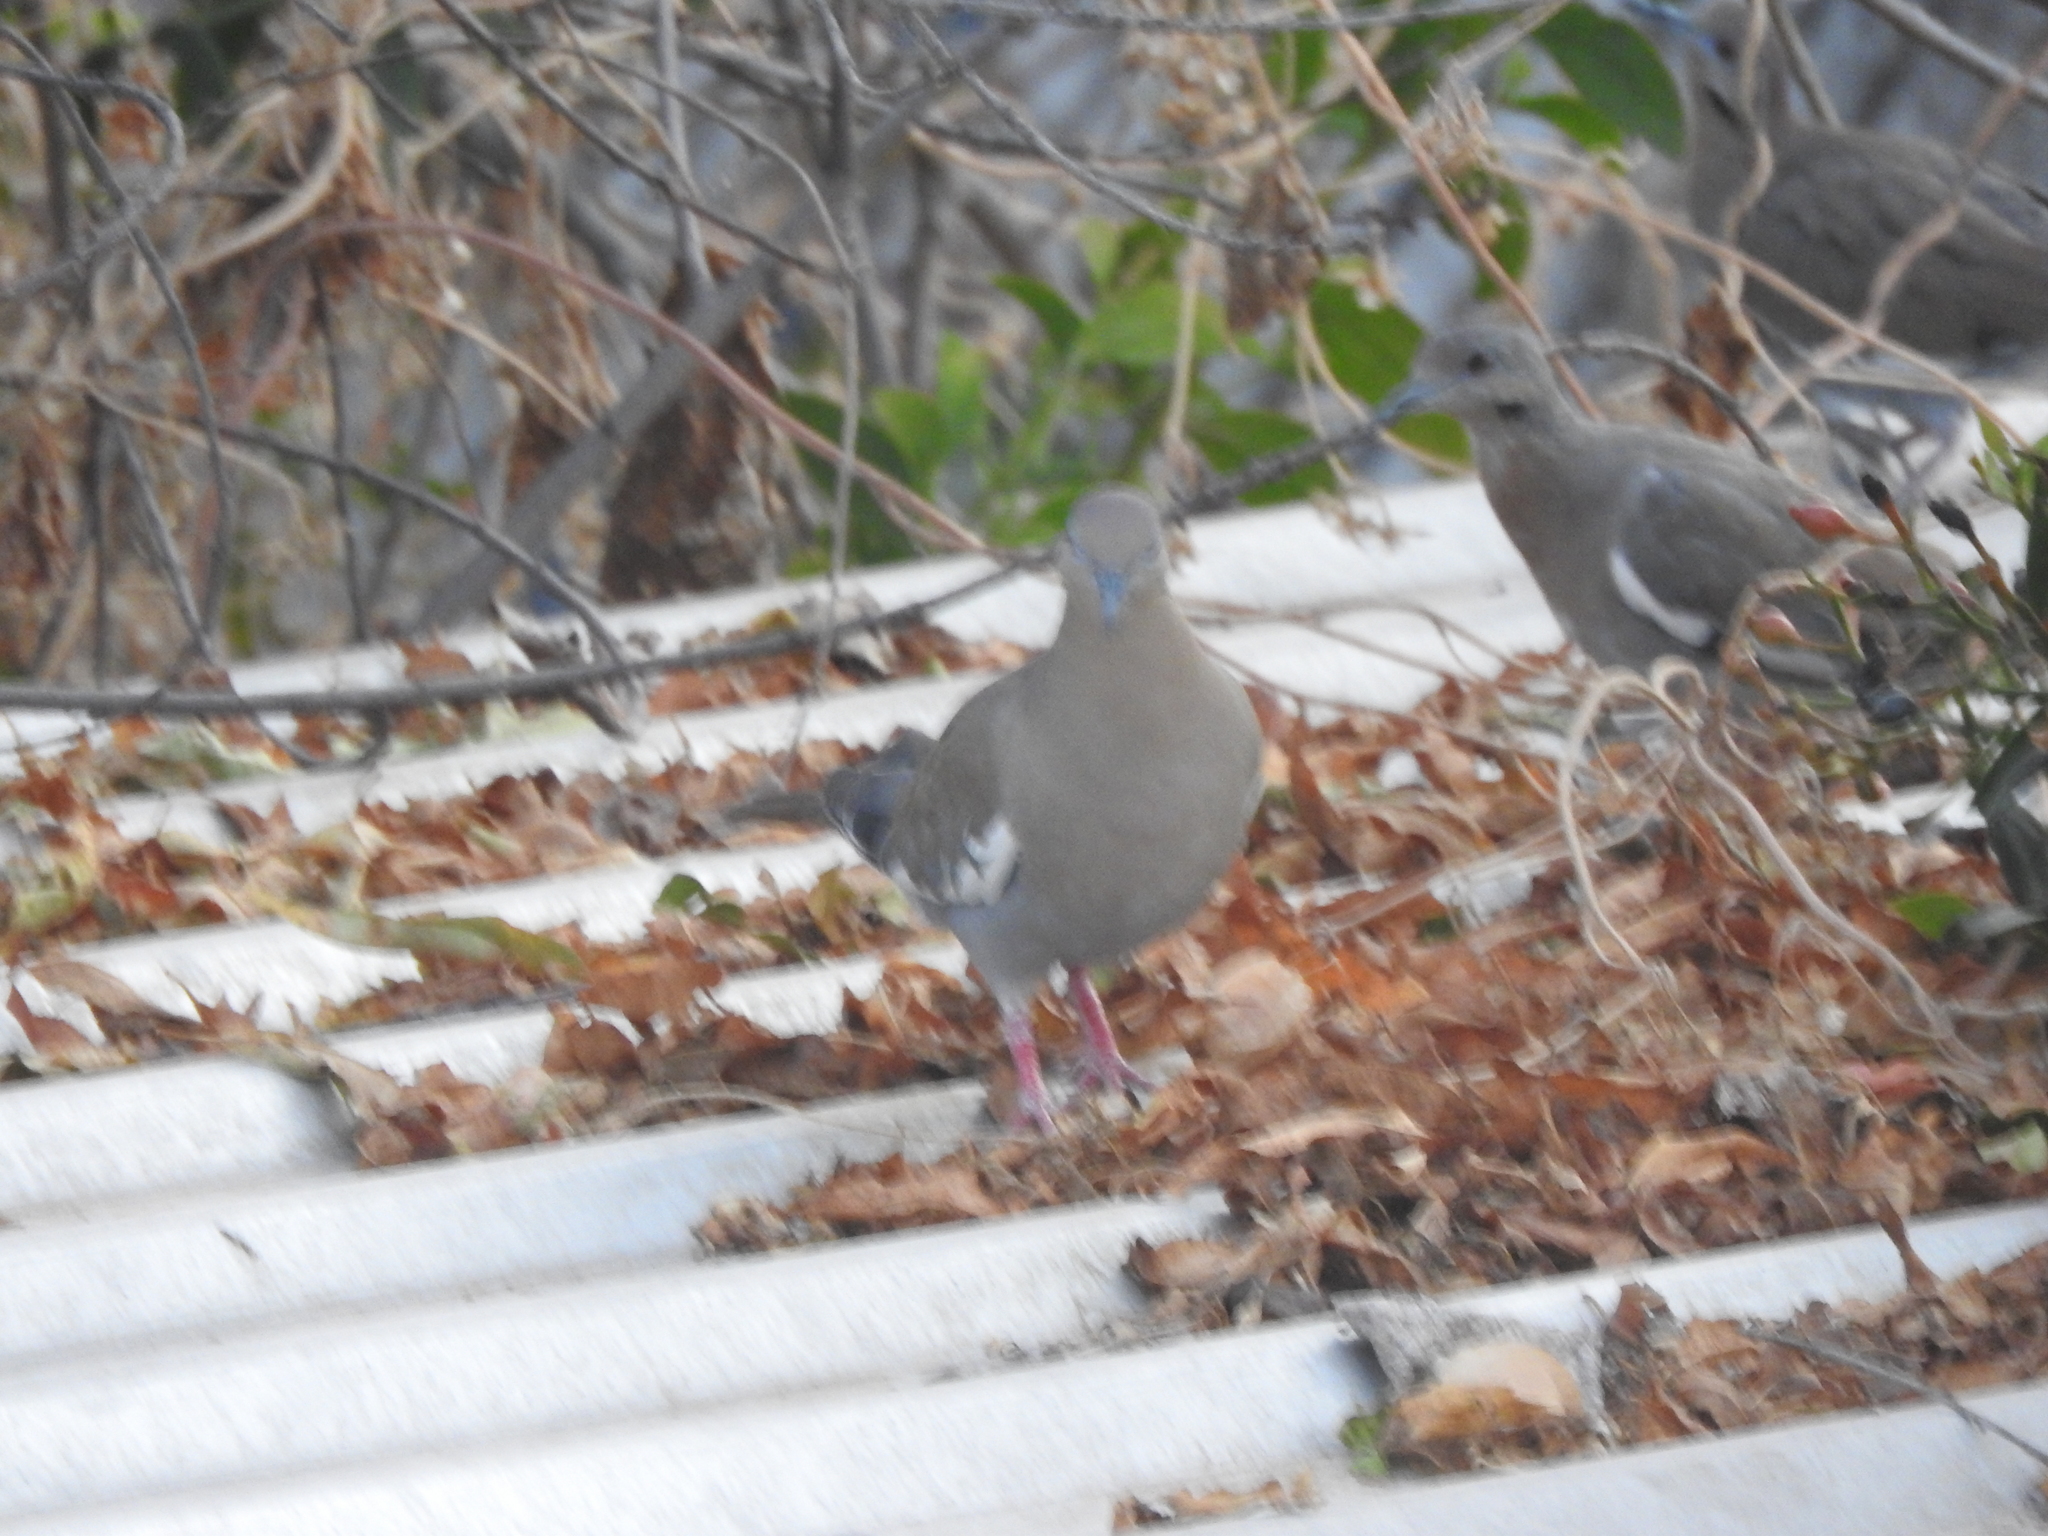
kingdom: Animalia
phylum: Chordata
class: Aves
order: Columbiformes
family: Columbidae
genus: Zenaida
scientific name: Zenaida asiatica
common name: White-winged dove
